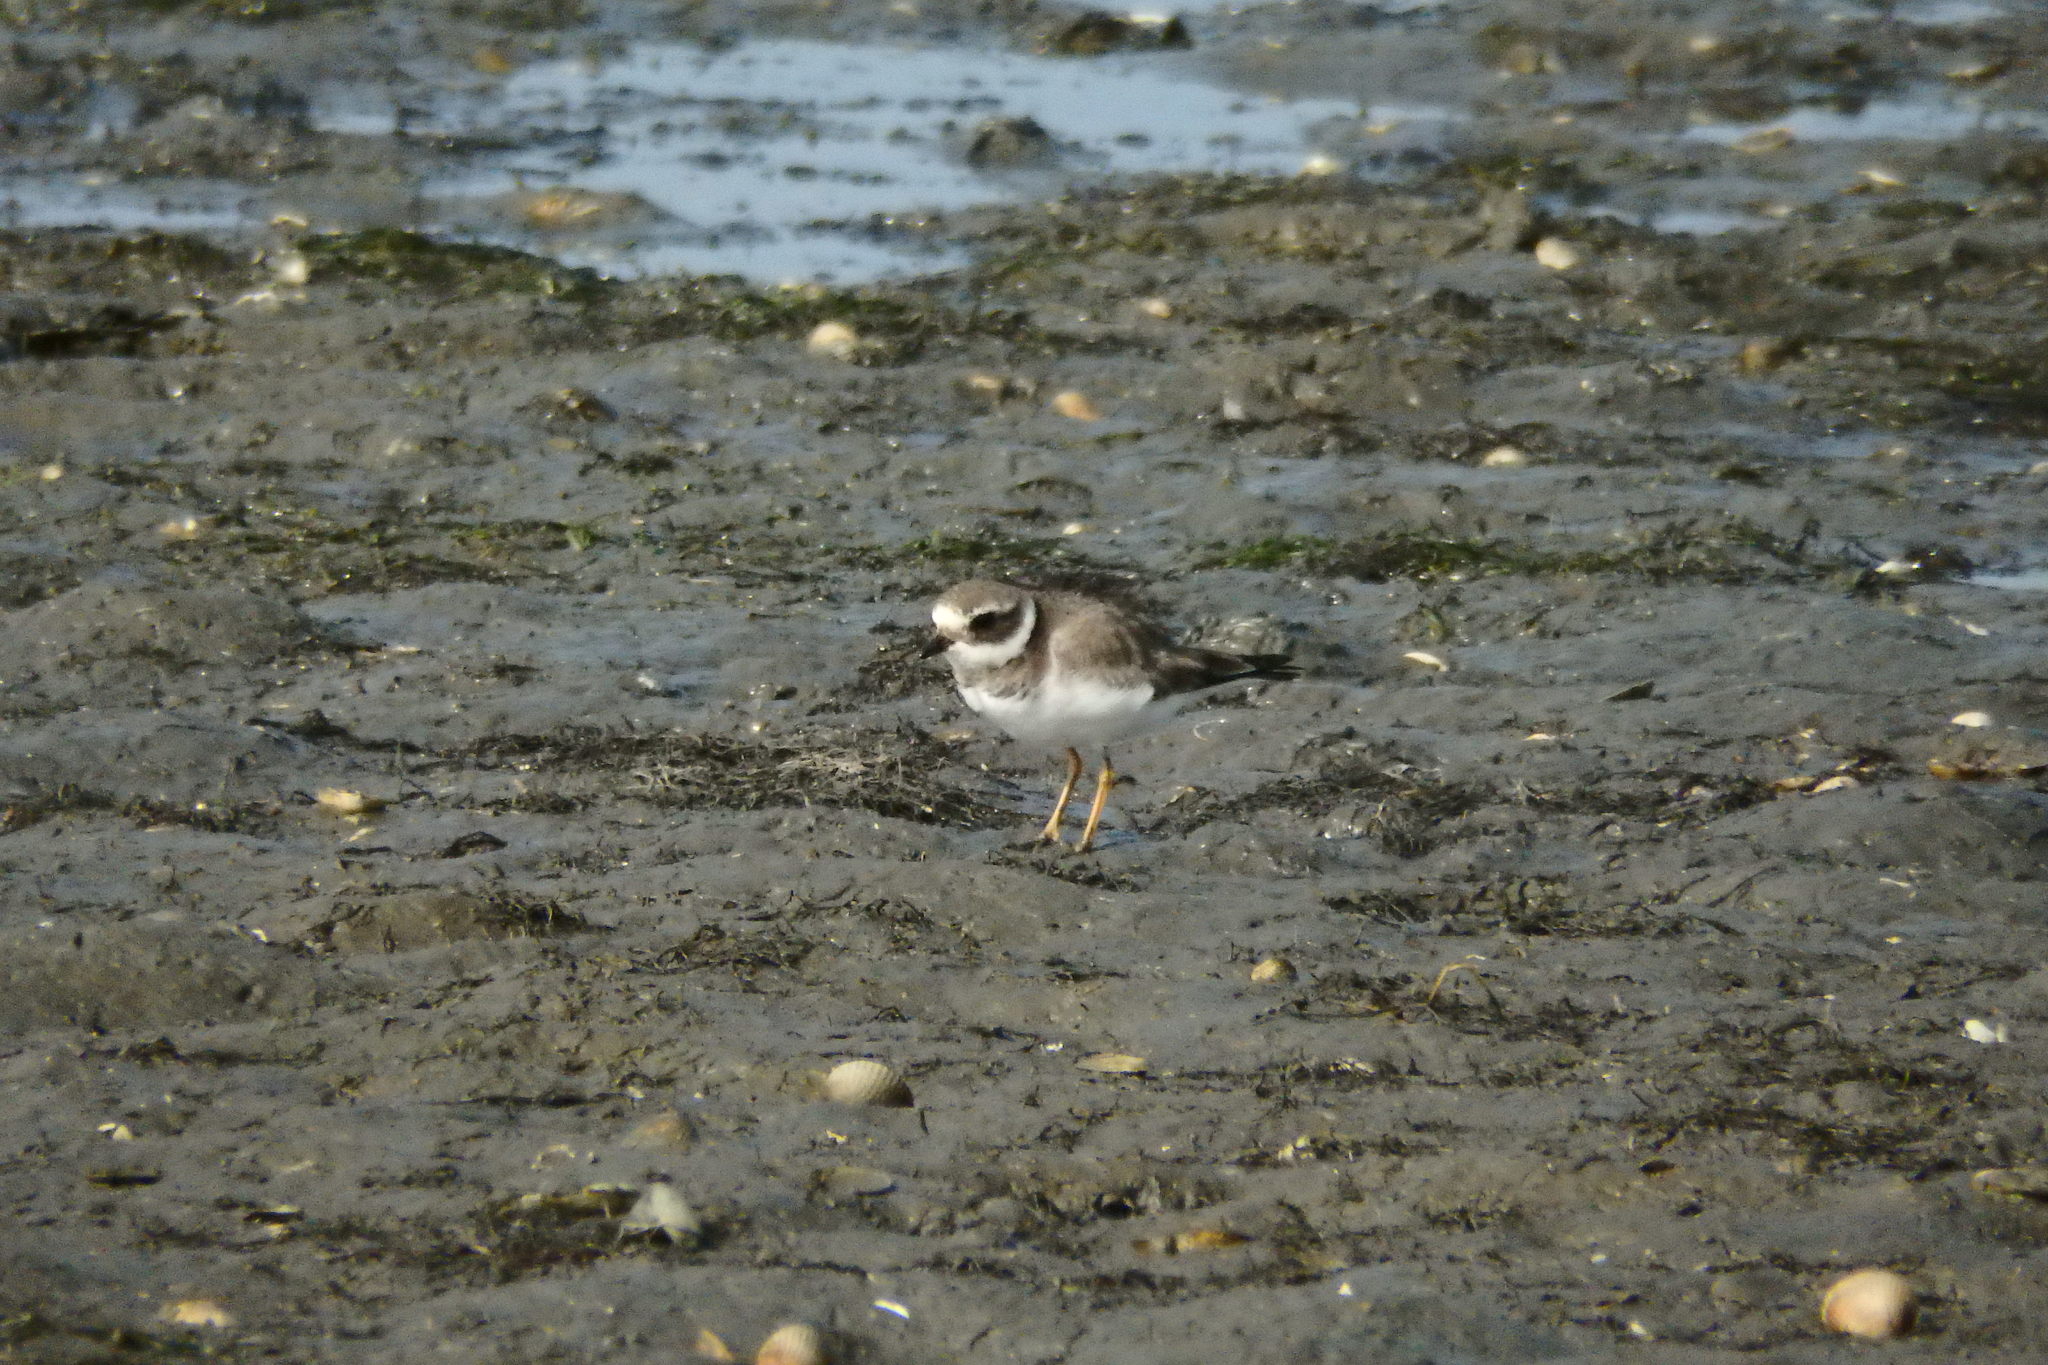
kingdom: Animalia
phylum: Chordata
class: Aves
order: Charadriiformes
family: Charadriidae
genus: Charadrius
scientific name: Charadrius hiaticula
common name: Common ringed plover
